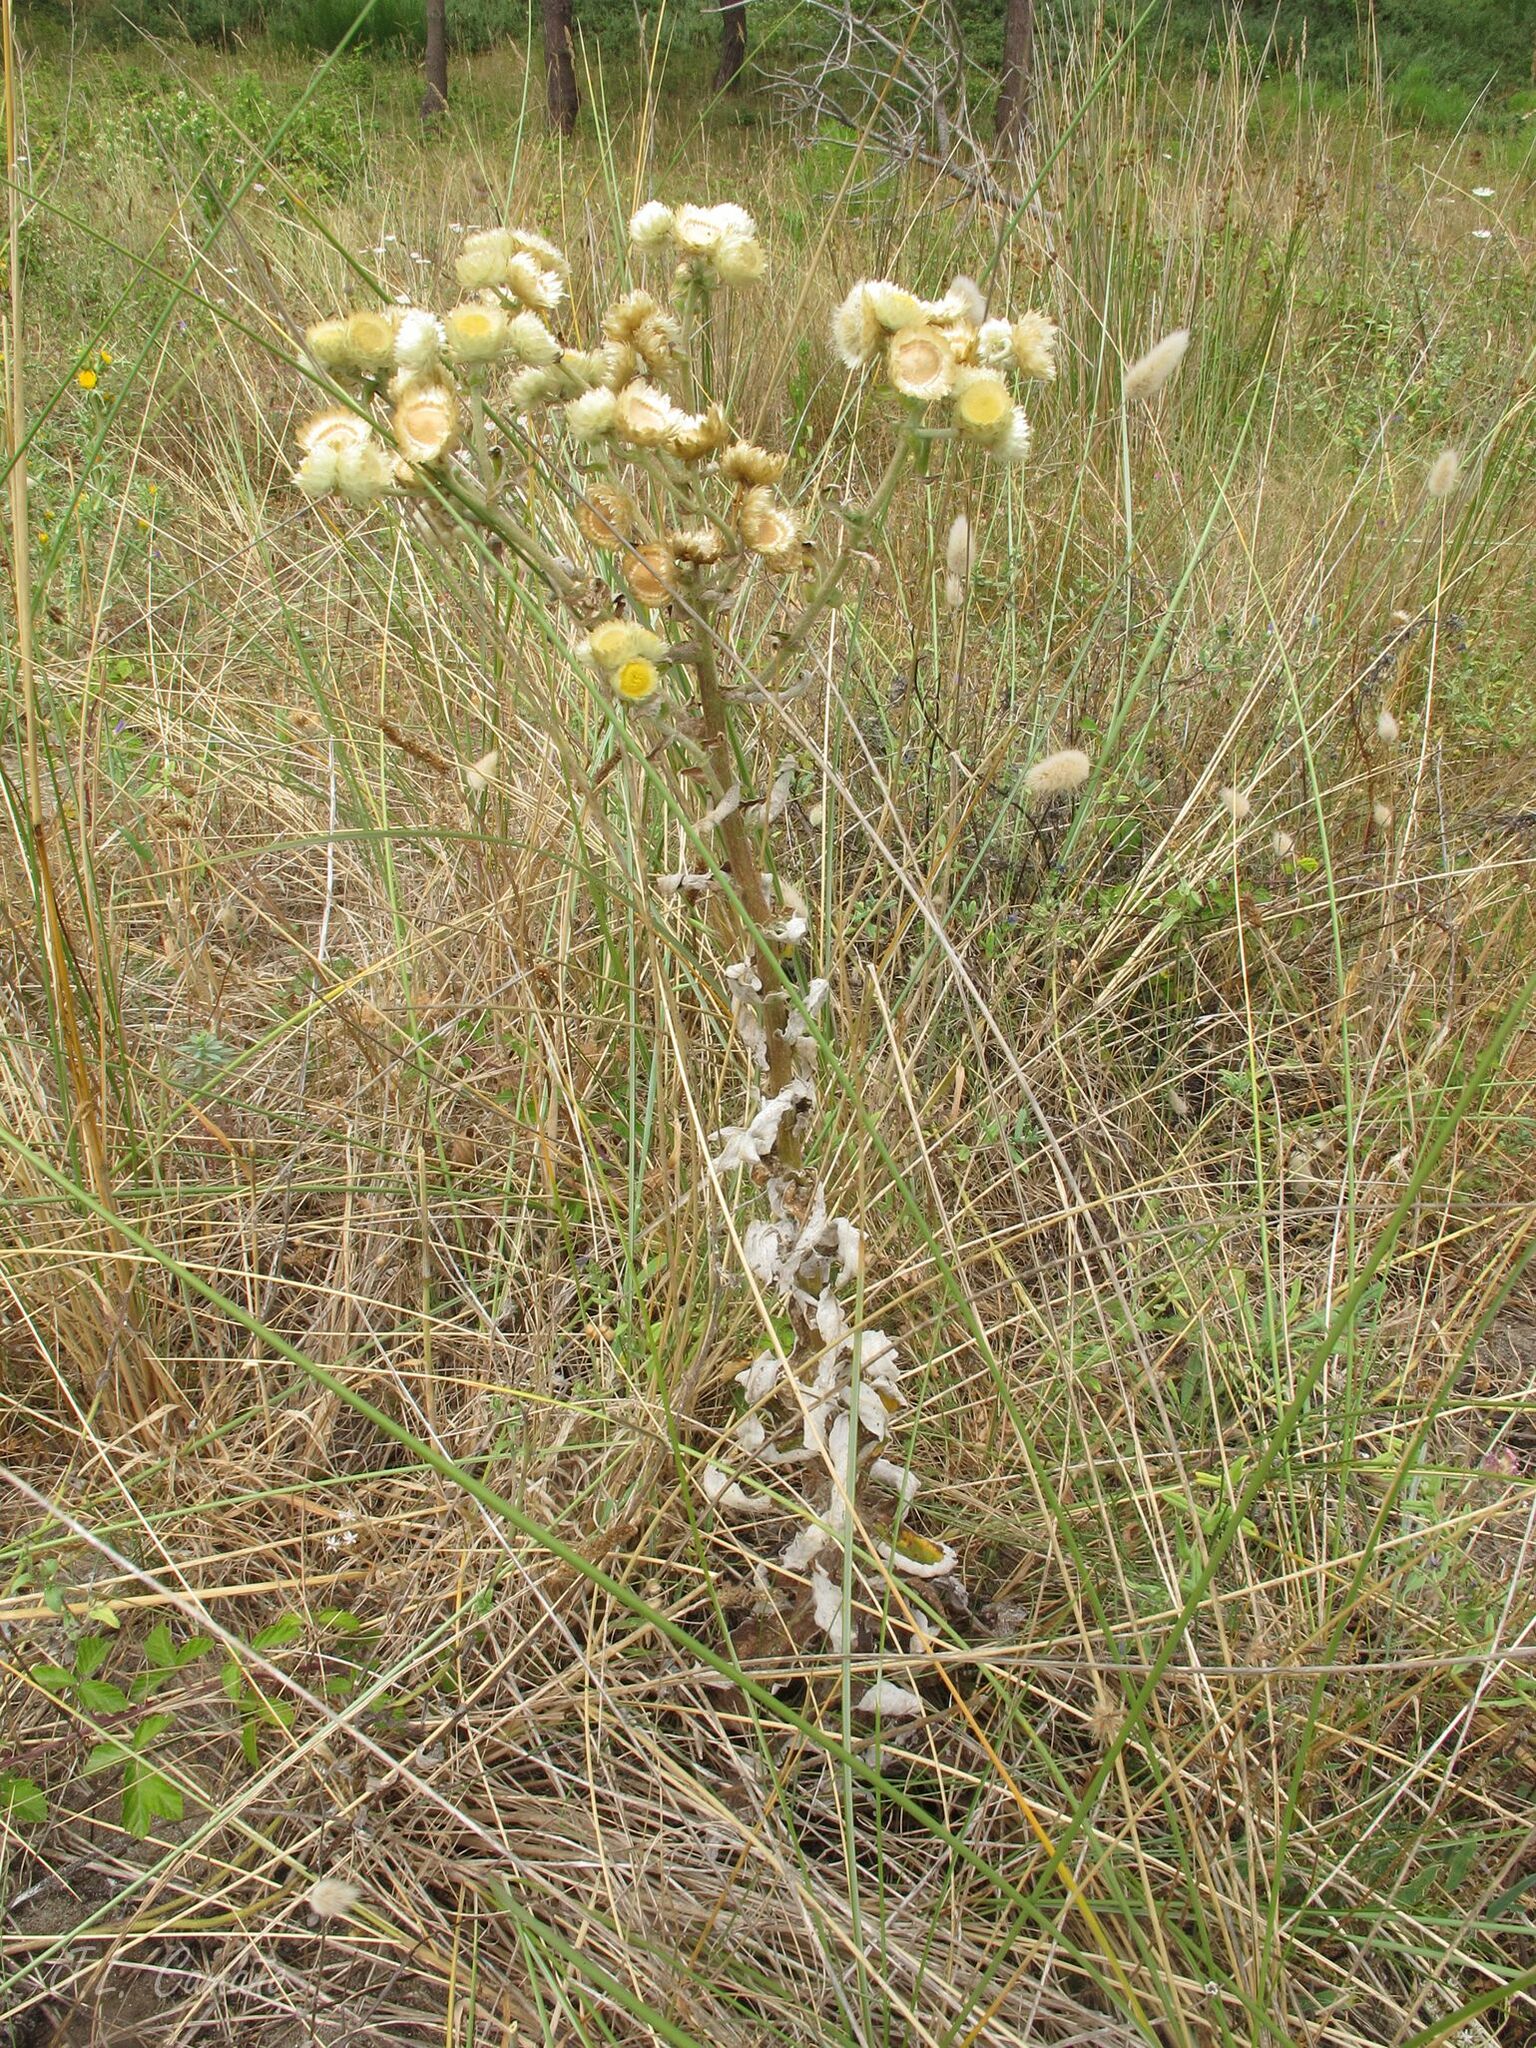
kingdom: Plantae
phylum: Tracheophyta
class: Magnoliopsida
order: Asterales
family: Asteraceae
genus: Helichrysum
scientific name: Helichrysum foetidum
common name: Stinking everlasting
